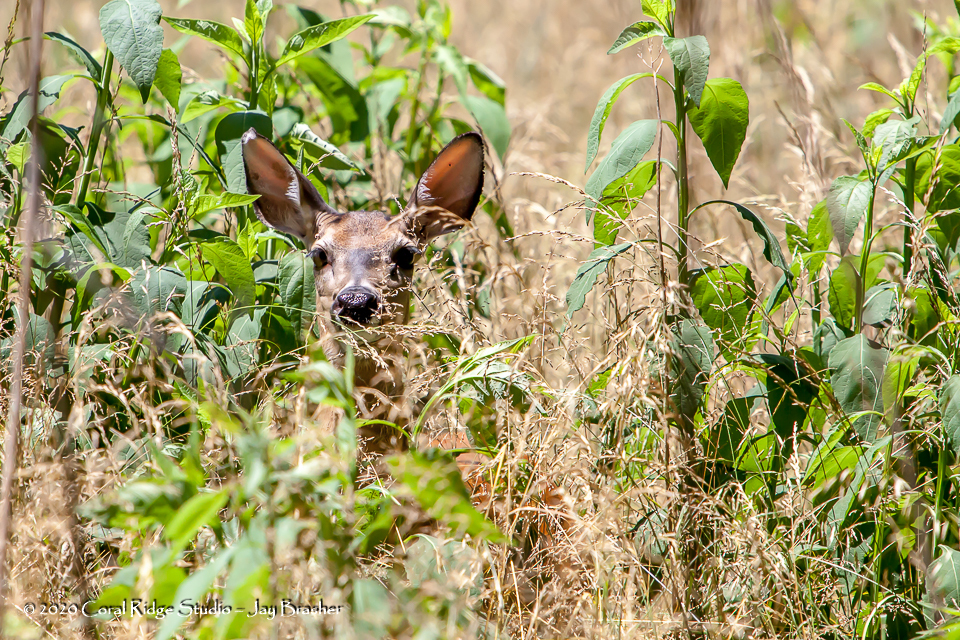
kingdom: Animalia
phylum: Chordata
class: Mammalia
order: Artiodactyla
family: Cervidae
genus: Odocoileus
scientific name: Odocoileus virginianus
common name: White-tailed deer
